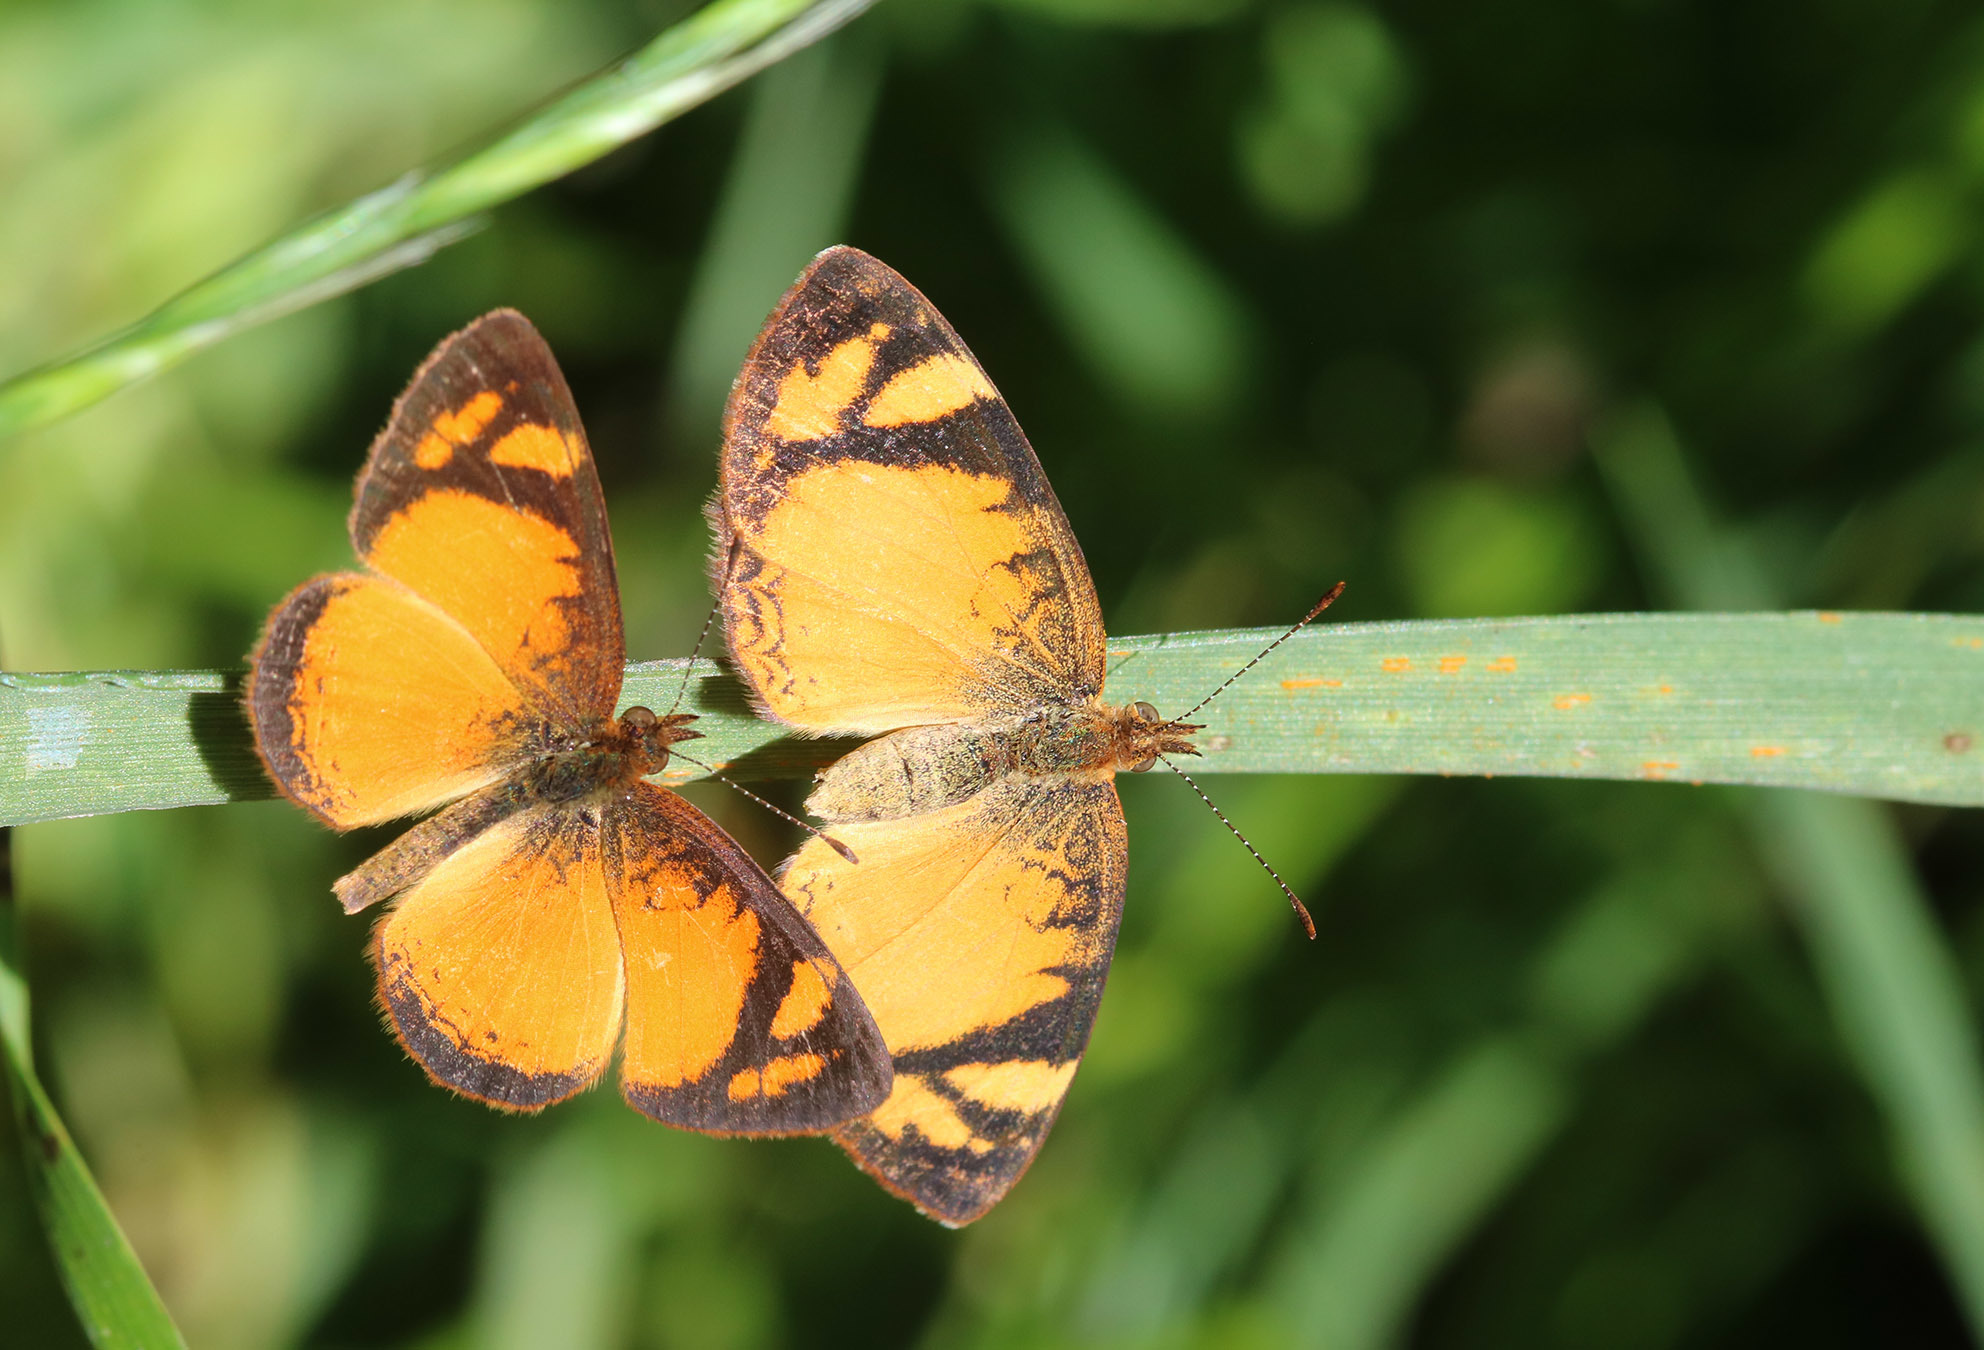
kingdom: Animalia
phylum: Arthropoda
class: Insecta
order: Lepidoptera
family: Nymphalidae
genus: Tegosa
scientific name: Tegosa claudina
